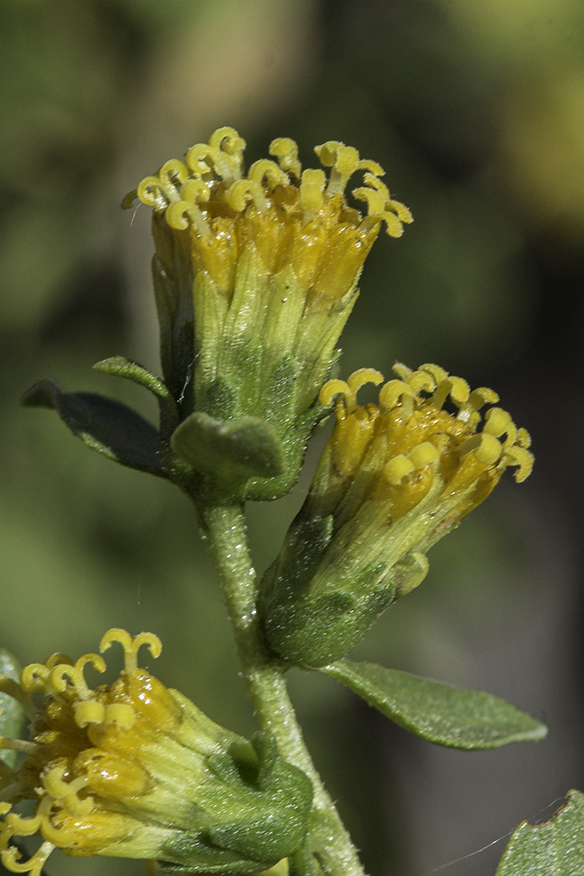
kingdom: Plantae
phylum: Tracheophyta
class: Magnoliopsida
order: Asterales
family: Asteraceae
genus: Flourensia
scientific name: Flourensia cernua
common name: Varnishbush
